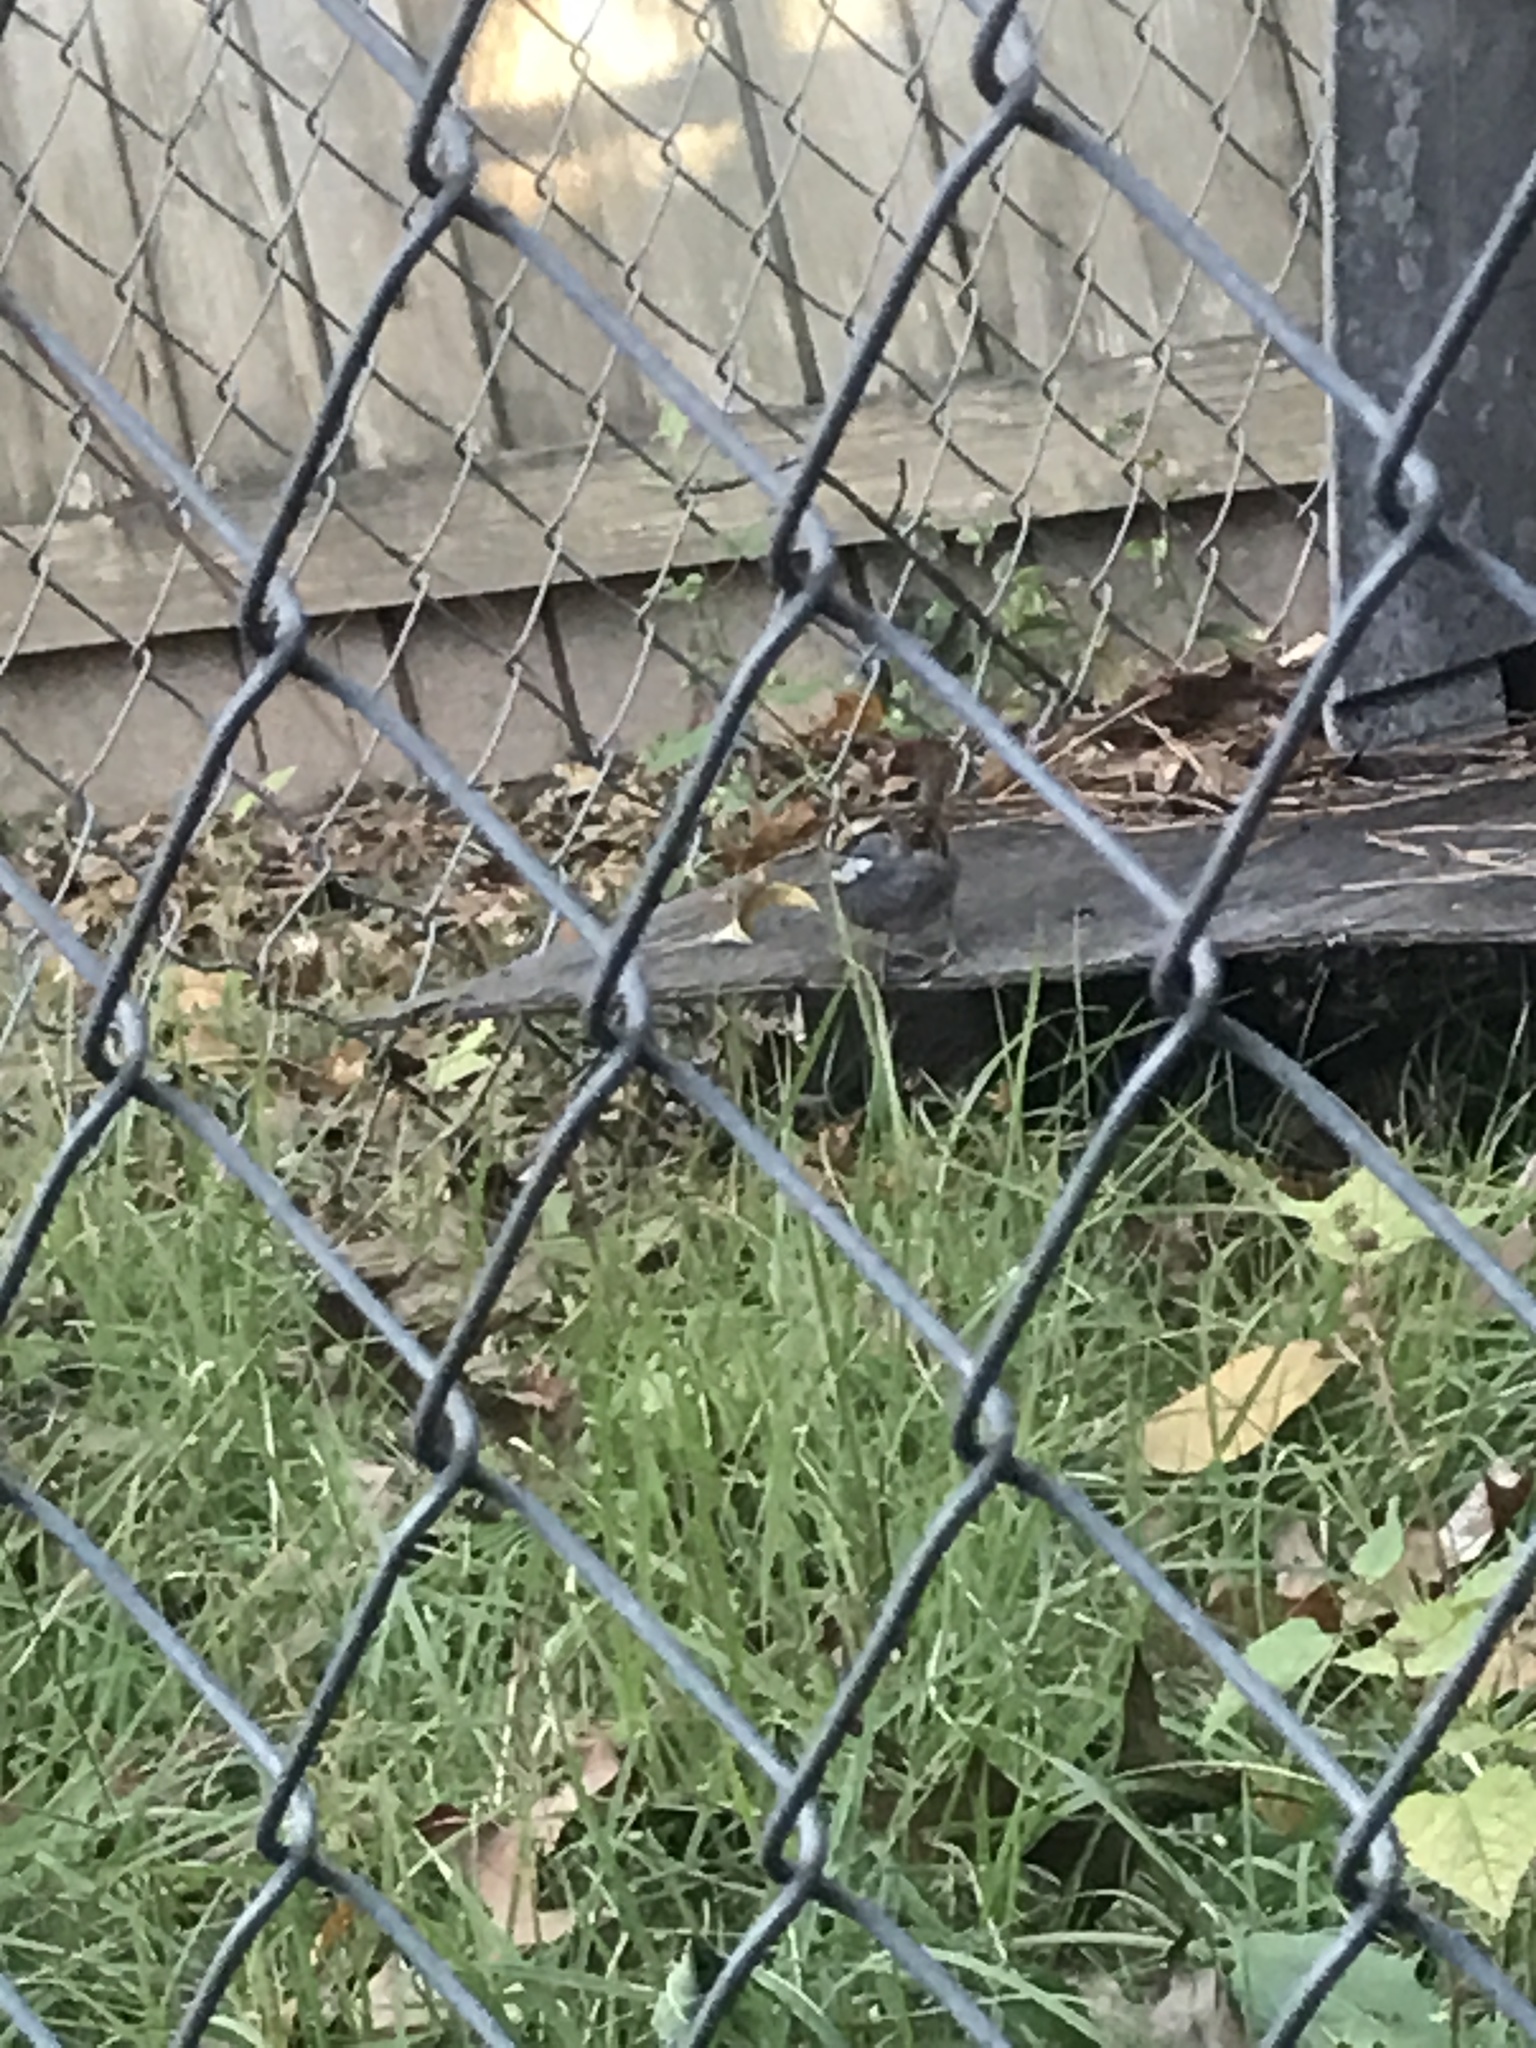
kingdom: Animalia
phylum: Chordata
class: Aves
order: Passeriformes
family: Passerellidae
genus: Zonotrichia
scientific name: Zonotrichia albicollis
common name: White-throated sparrow
